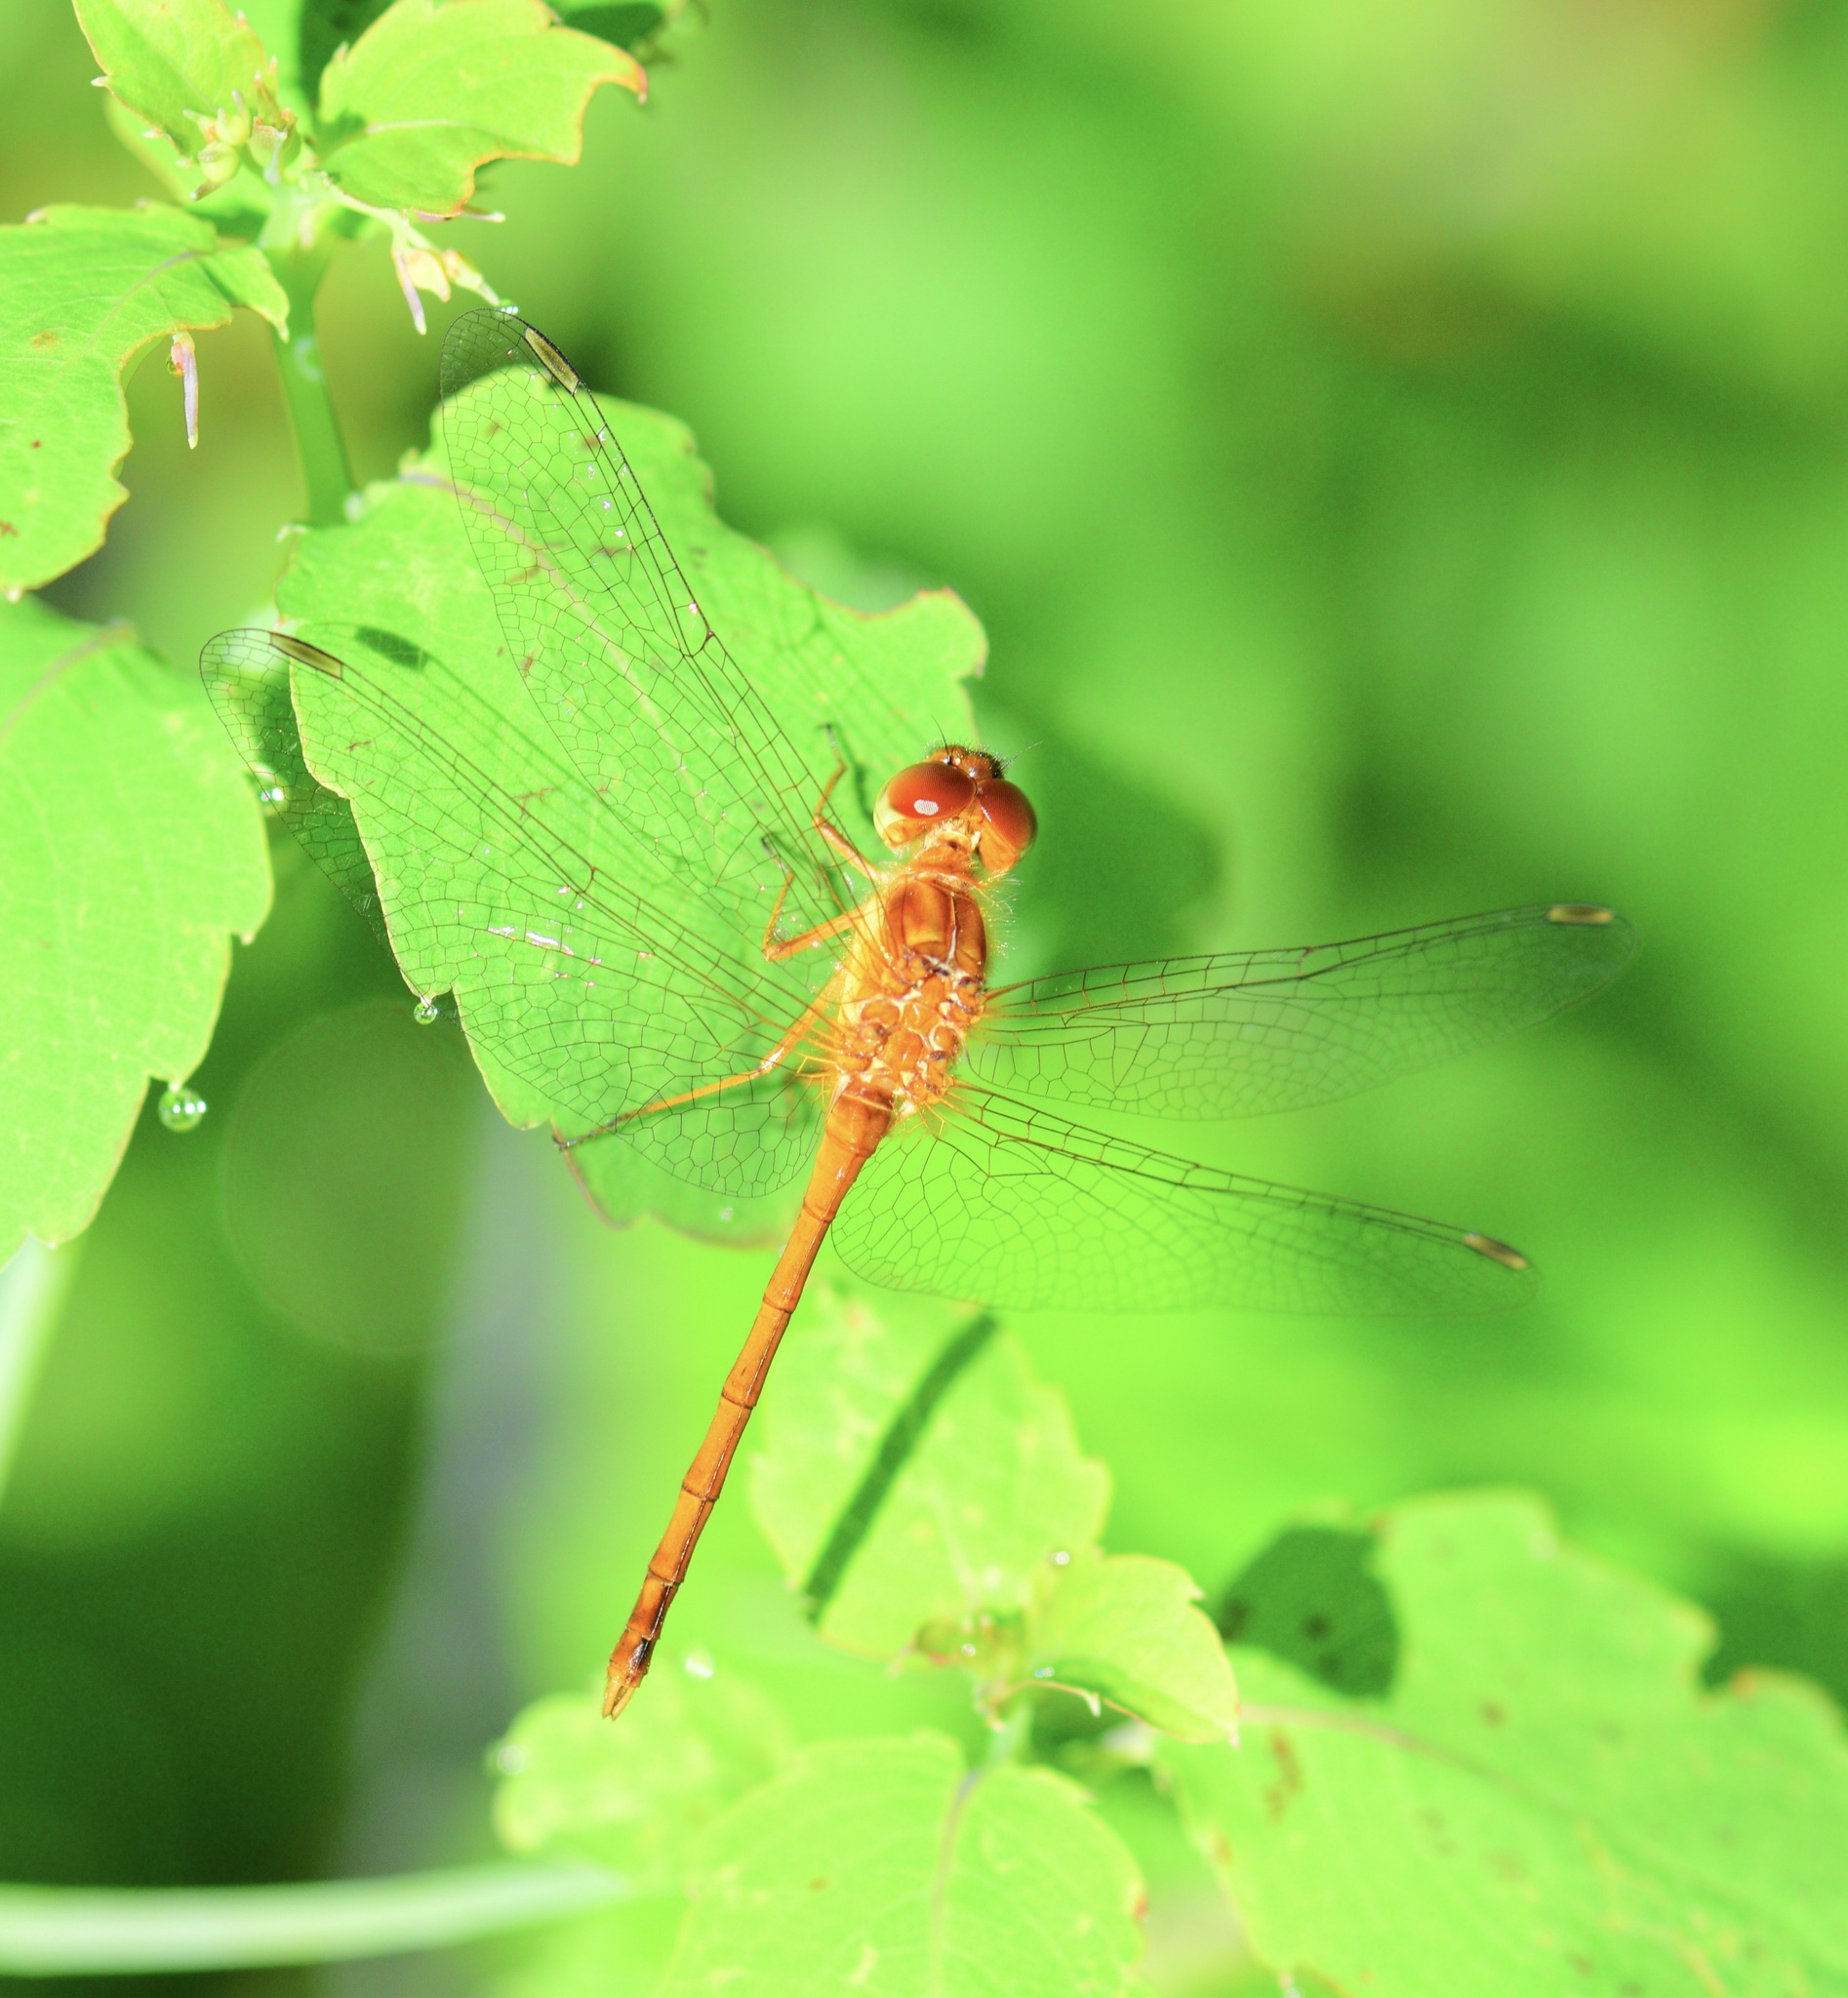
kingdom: Animalia
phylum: Arthropoda
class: Insecta
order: Odonata
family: Libellulidae
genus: Sympetrum
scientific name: Sympetrum vicinum
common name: Autumn meadowhawk
